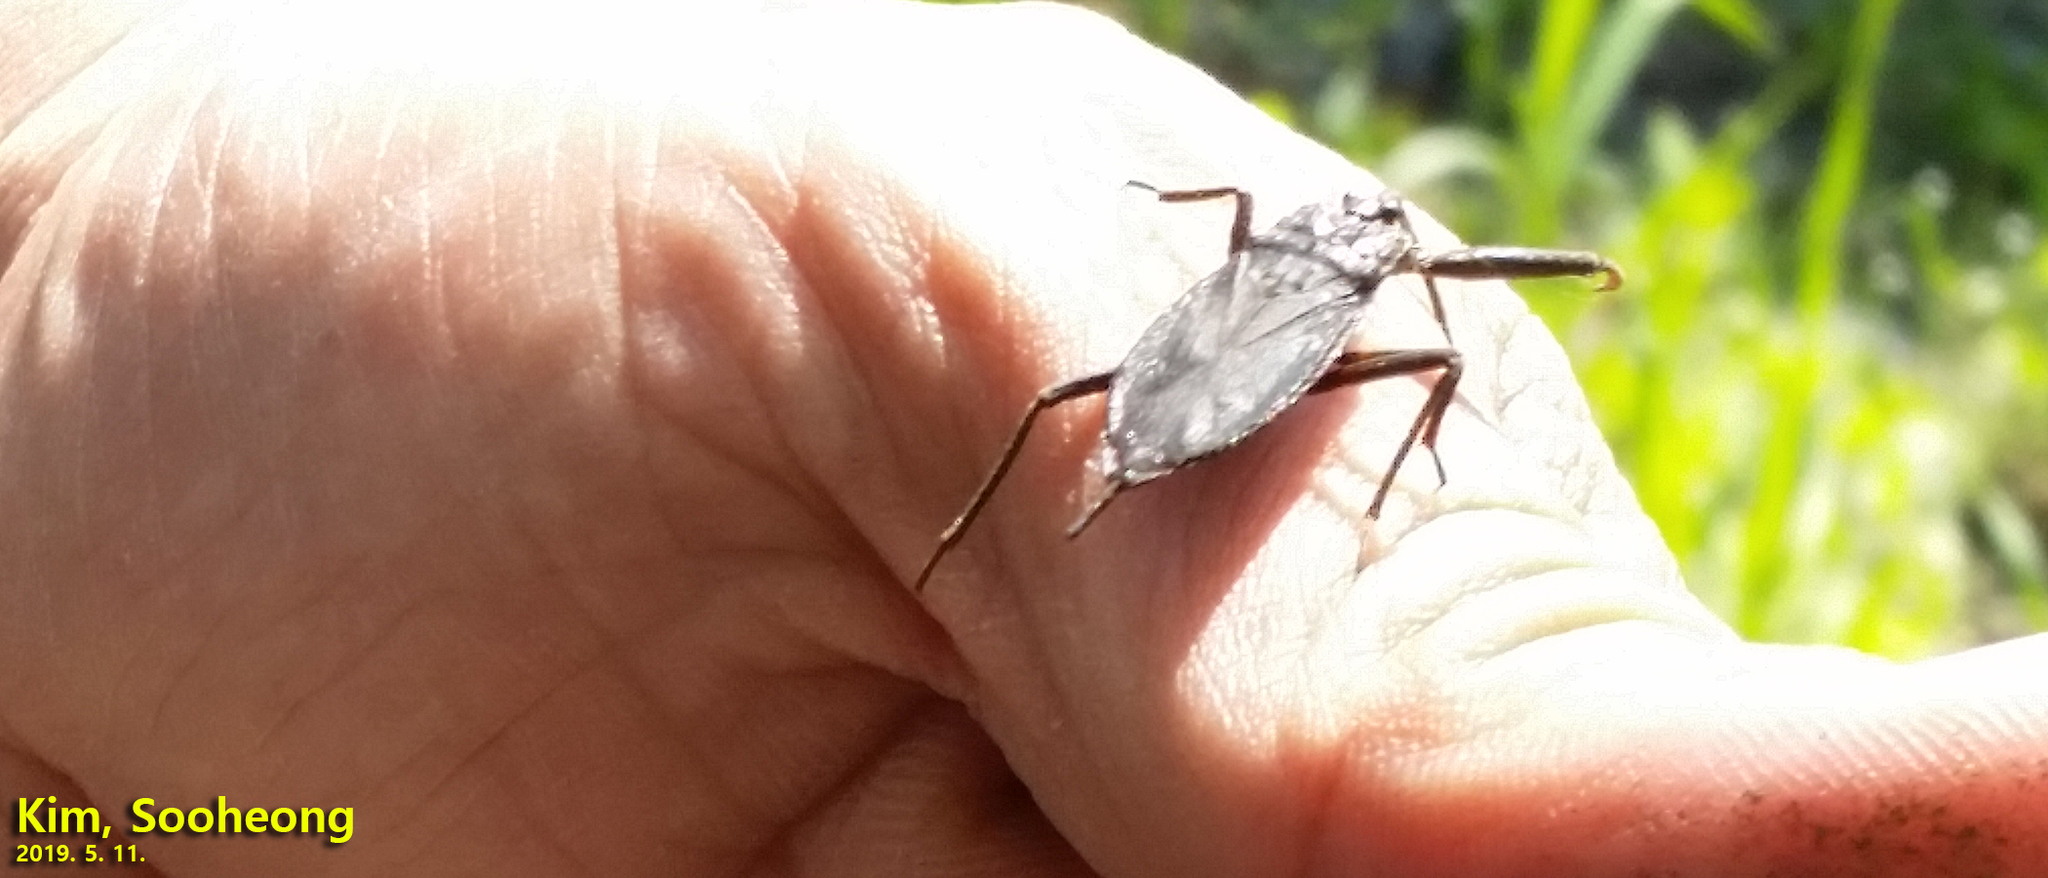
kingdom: Animalia
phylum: Arthropoda
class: Insecta
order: Hemiptera
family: Nepidae
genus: Nepa
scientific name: Nepa hoffmanni
